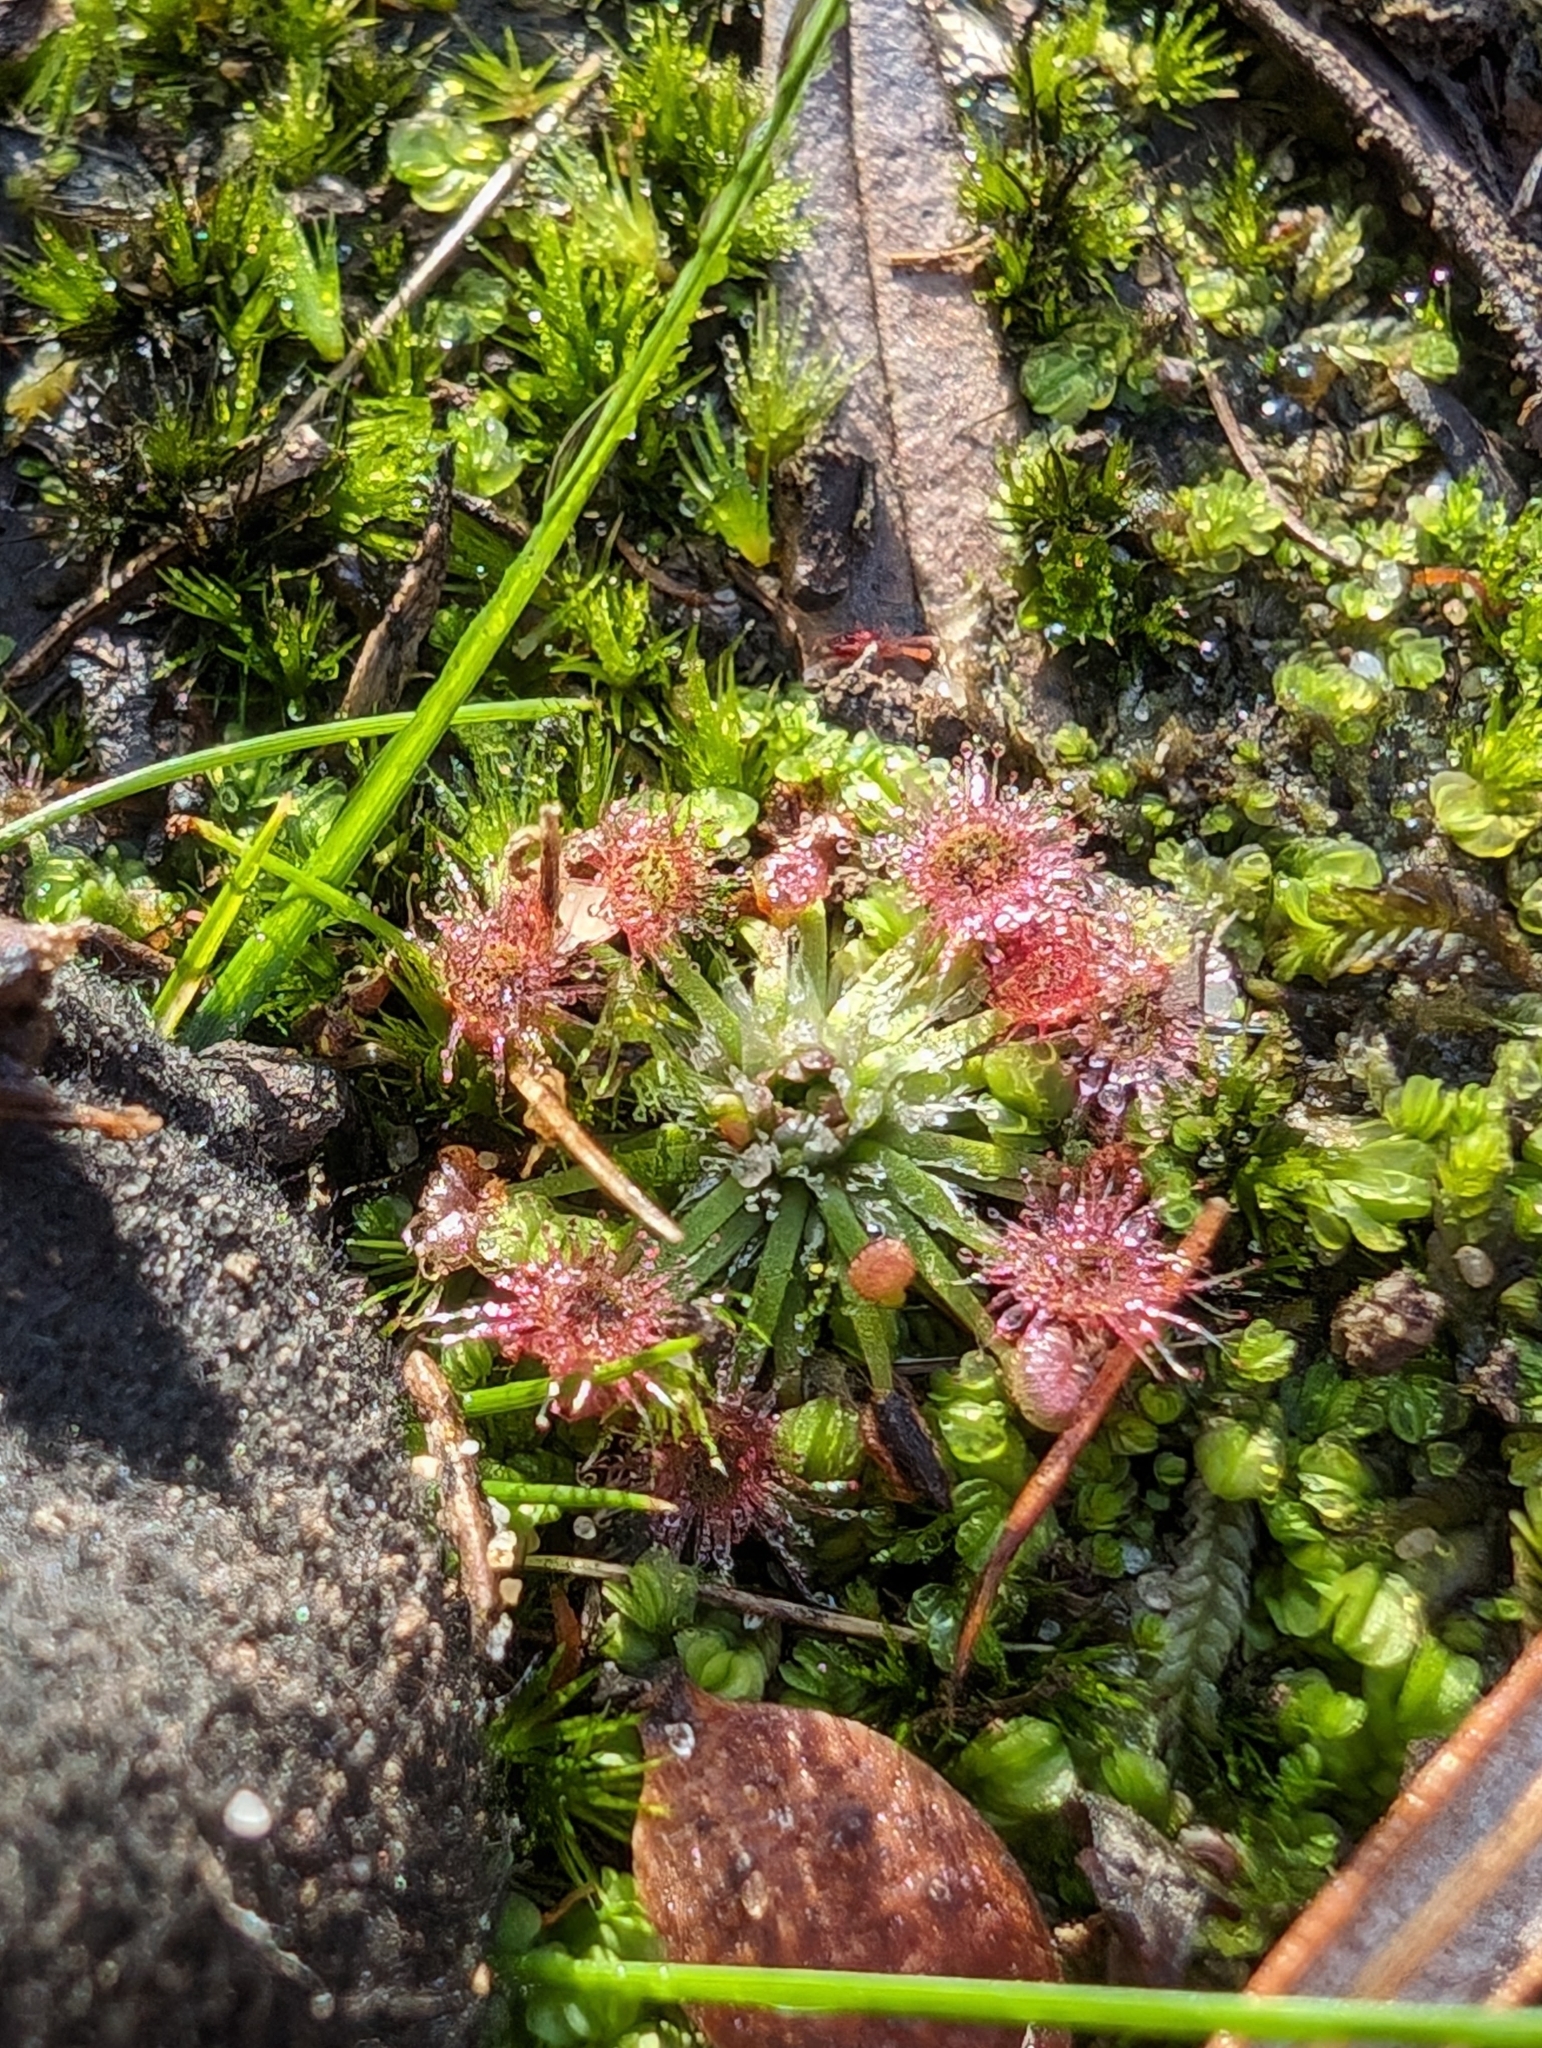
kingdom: Plantae
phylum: Tracheophyta
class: Magnoliopsida
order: Caryophyllales
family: Droseraceae
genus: Drosera
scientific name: Drosera pygmaea
